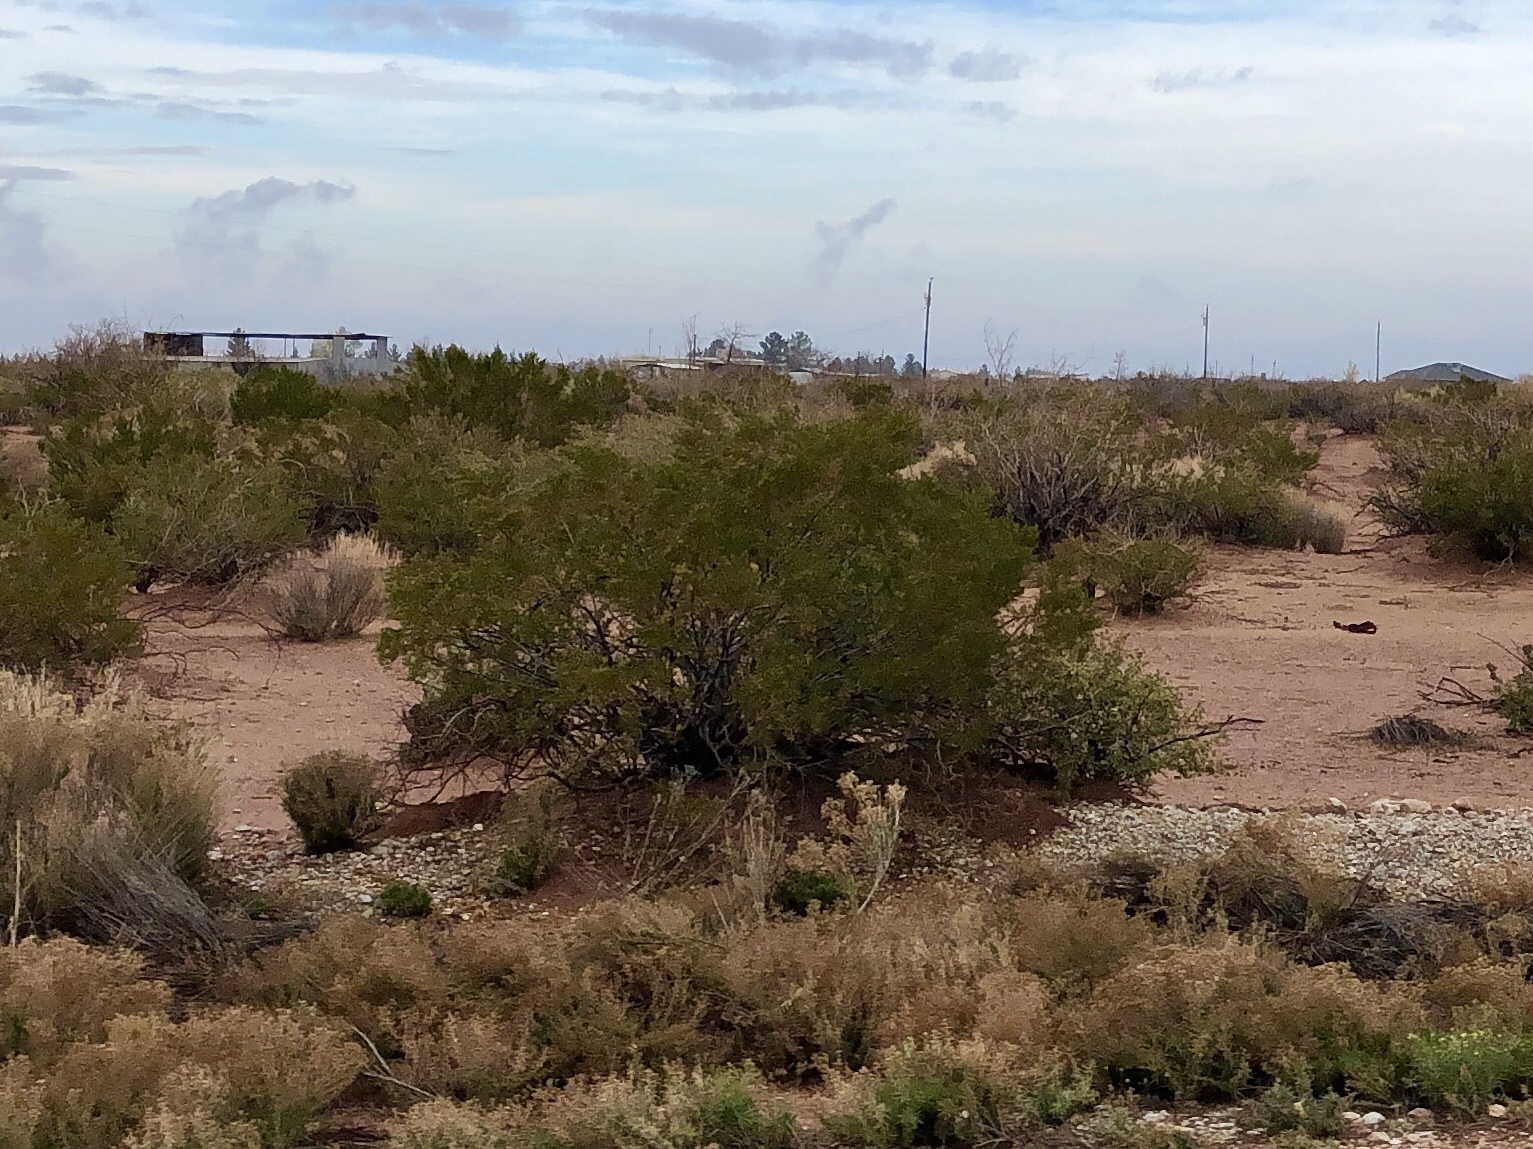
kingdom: Plantae
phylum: Tracheophyta
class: Magnoliopsida
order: Zygophyllales
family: Zygophyllaceae
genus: Larrea
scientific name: Larrea tridentata
